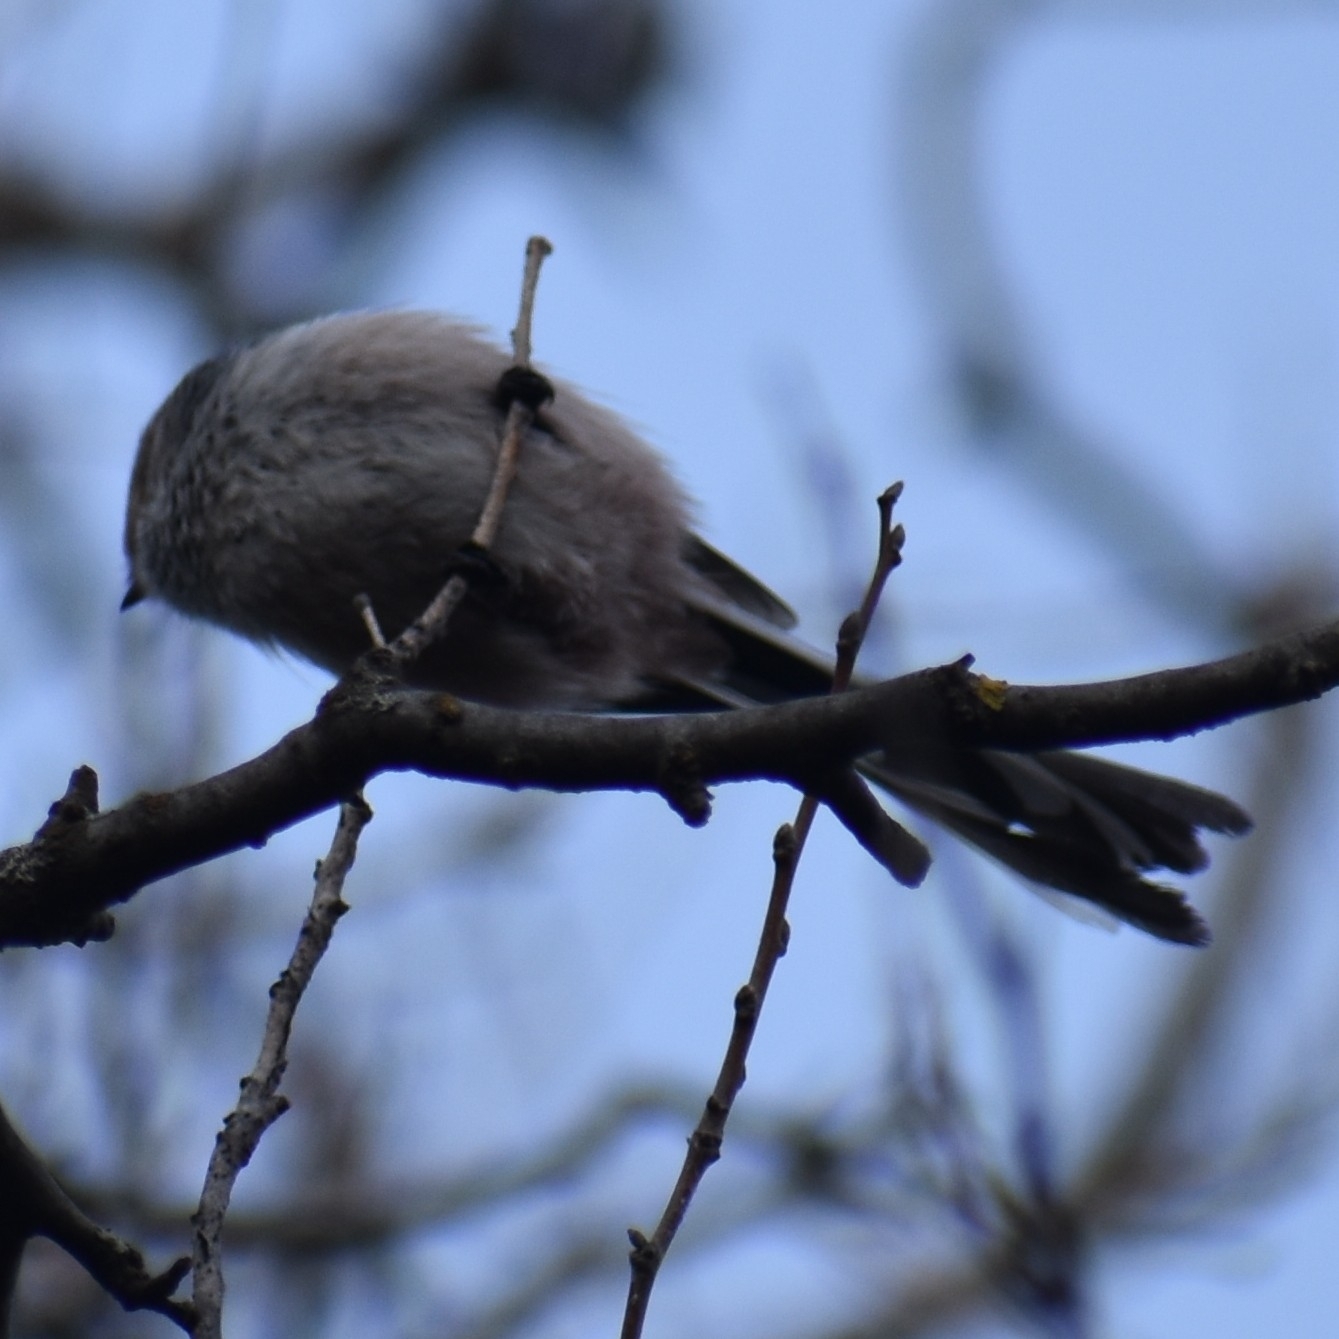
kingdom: Animalia
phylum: Chordata
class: Aves
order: Passeriformes
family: Aegithalidae
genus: Aegithalos
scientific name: Aegithalos caudatus
